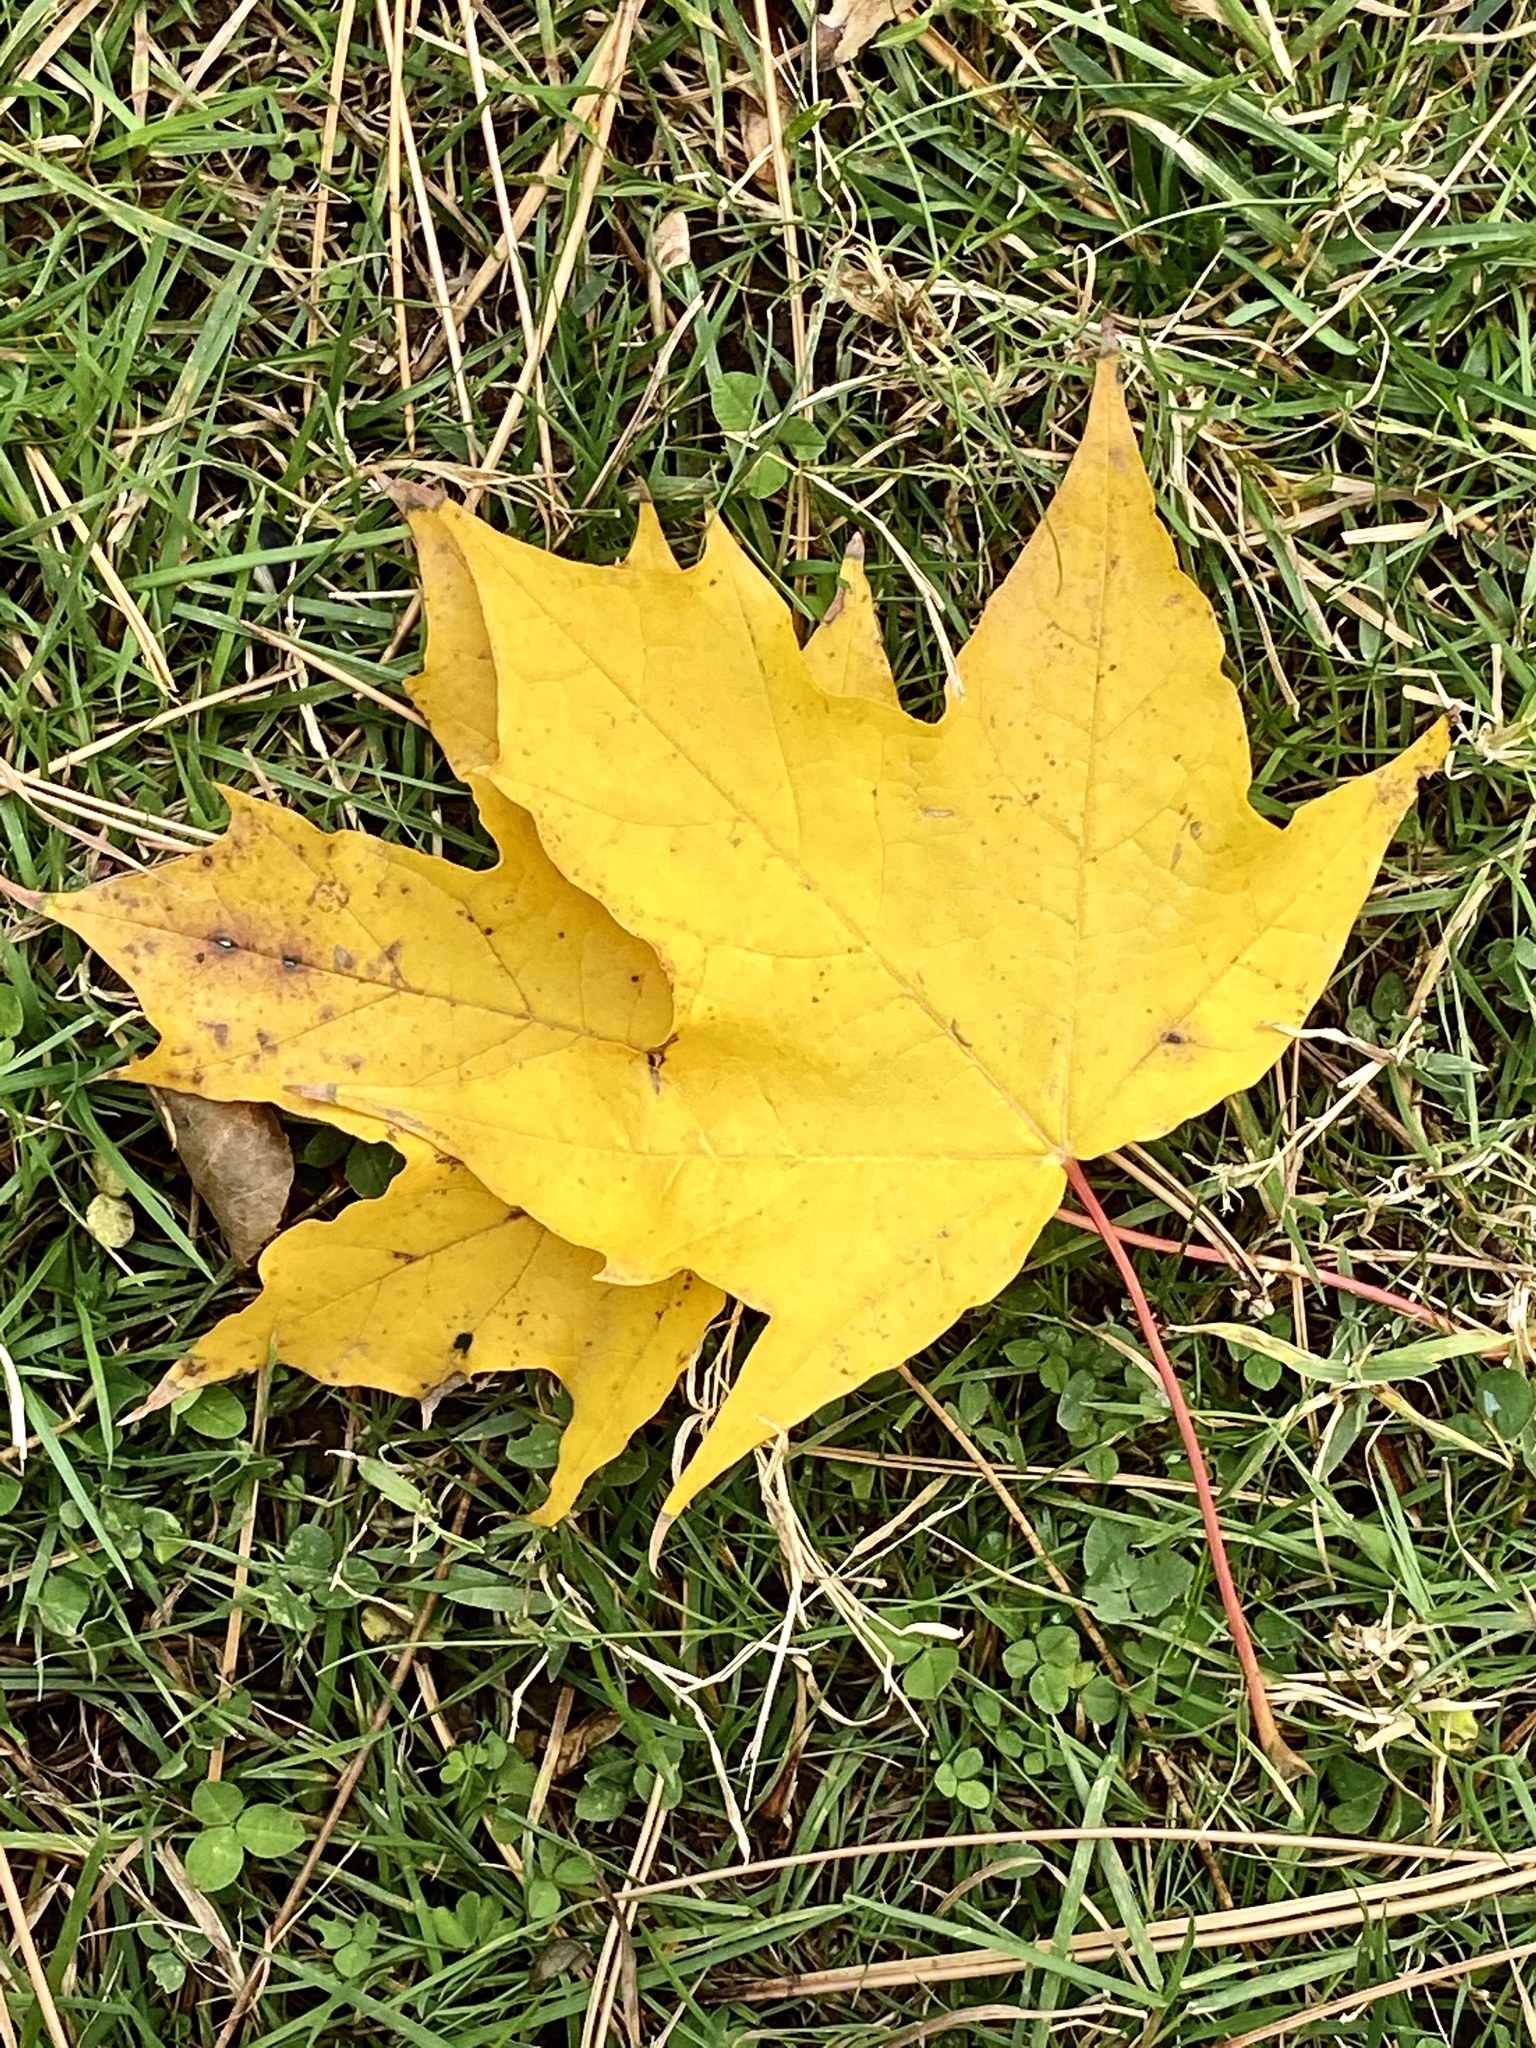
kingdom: Plantae
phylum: Tracheophyta
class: Magnoliopsida
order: Sapindales
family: Sapindaceae
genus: Acer
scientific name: Acer platanoides
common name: Norway maple
